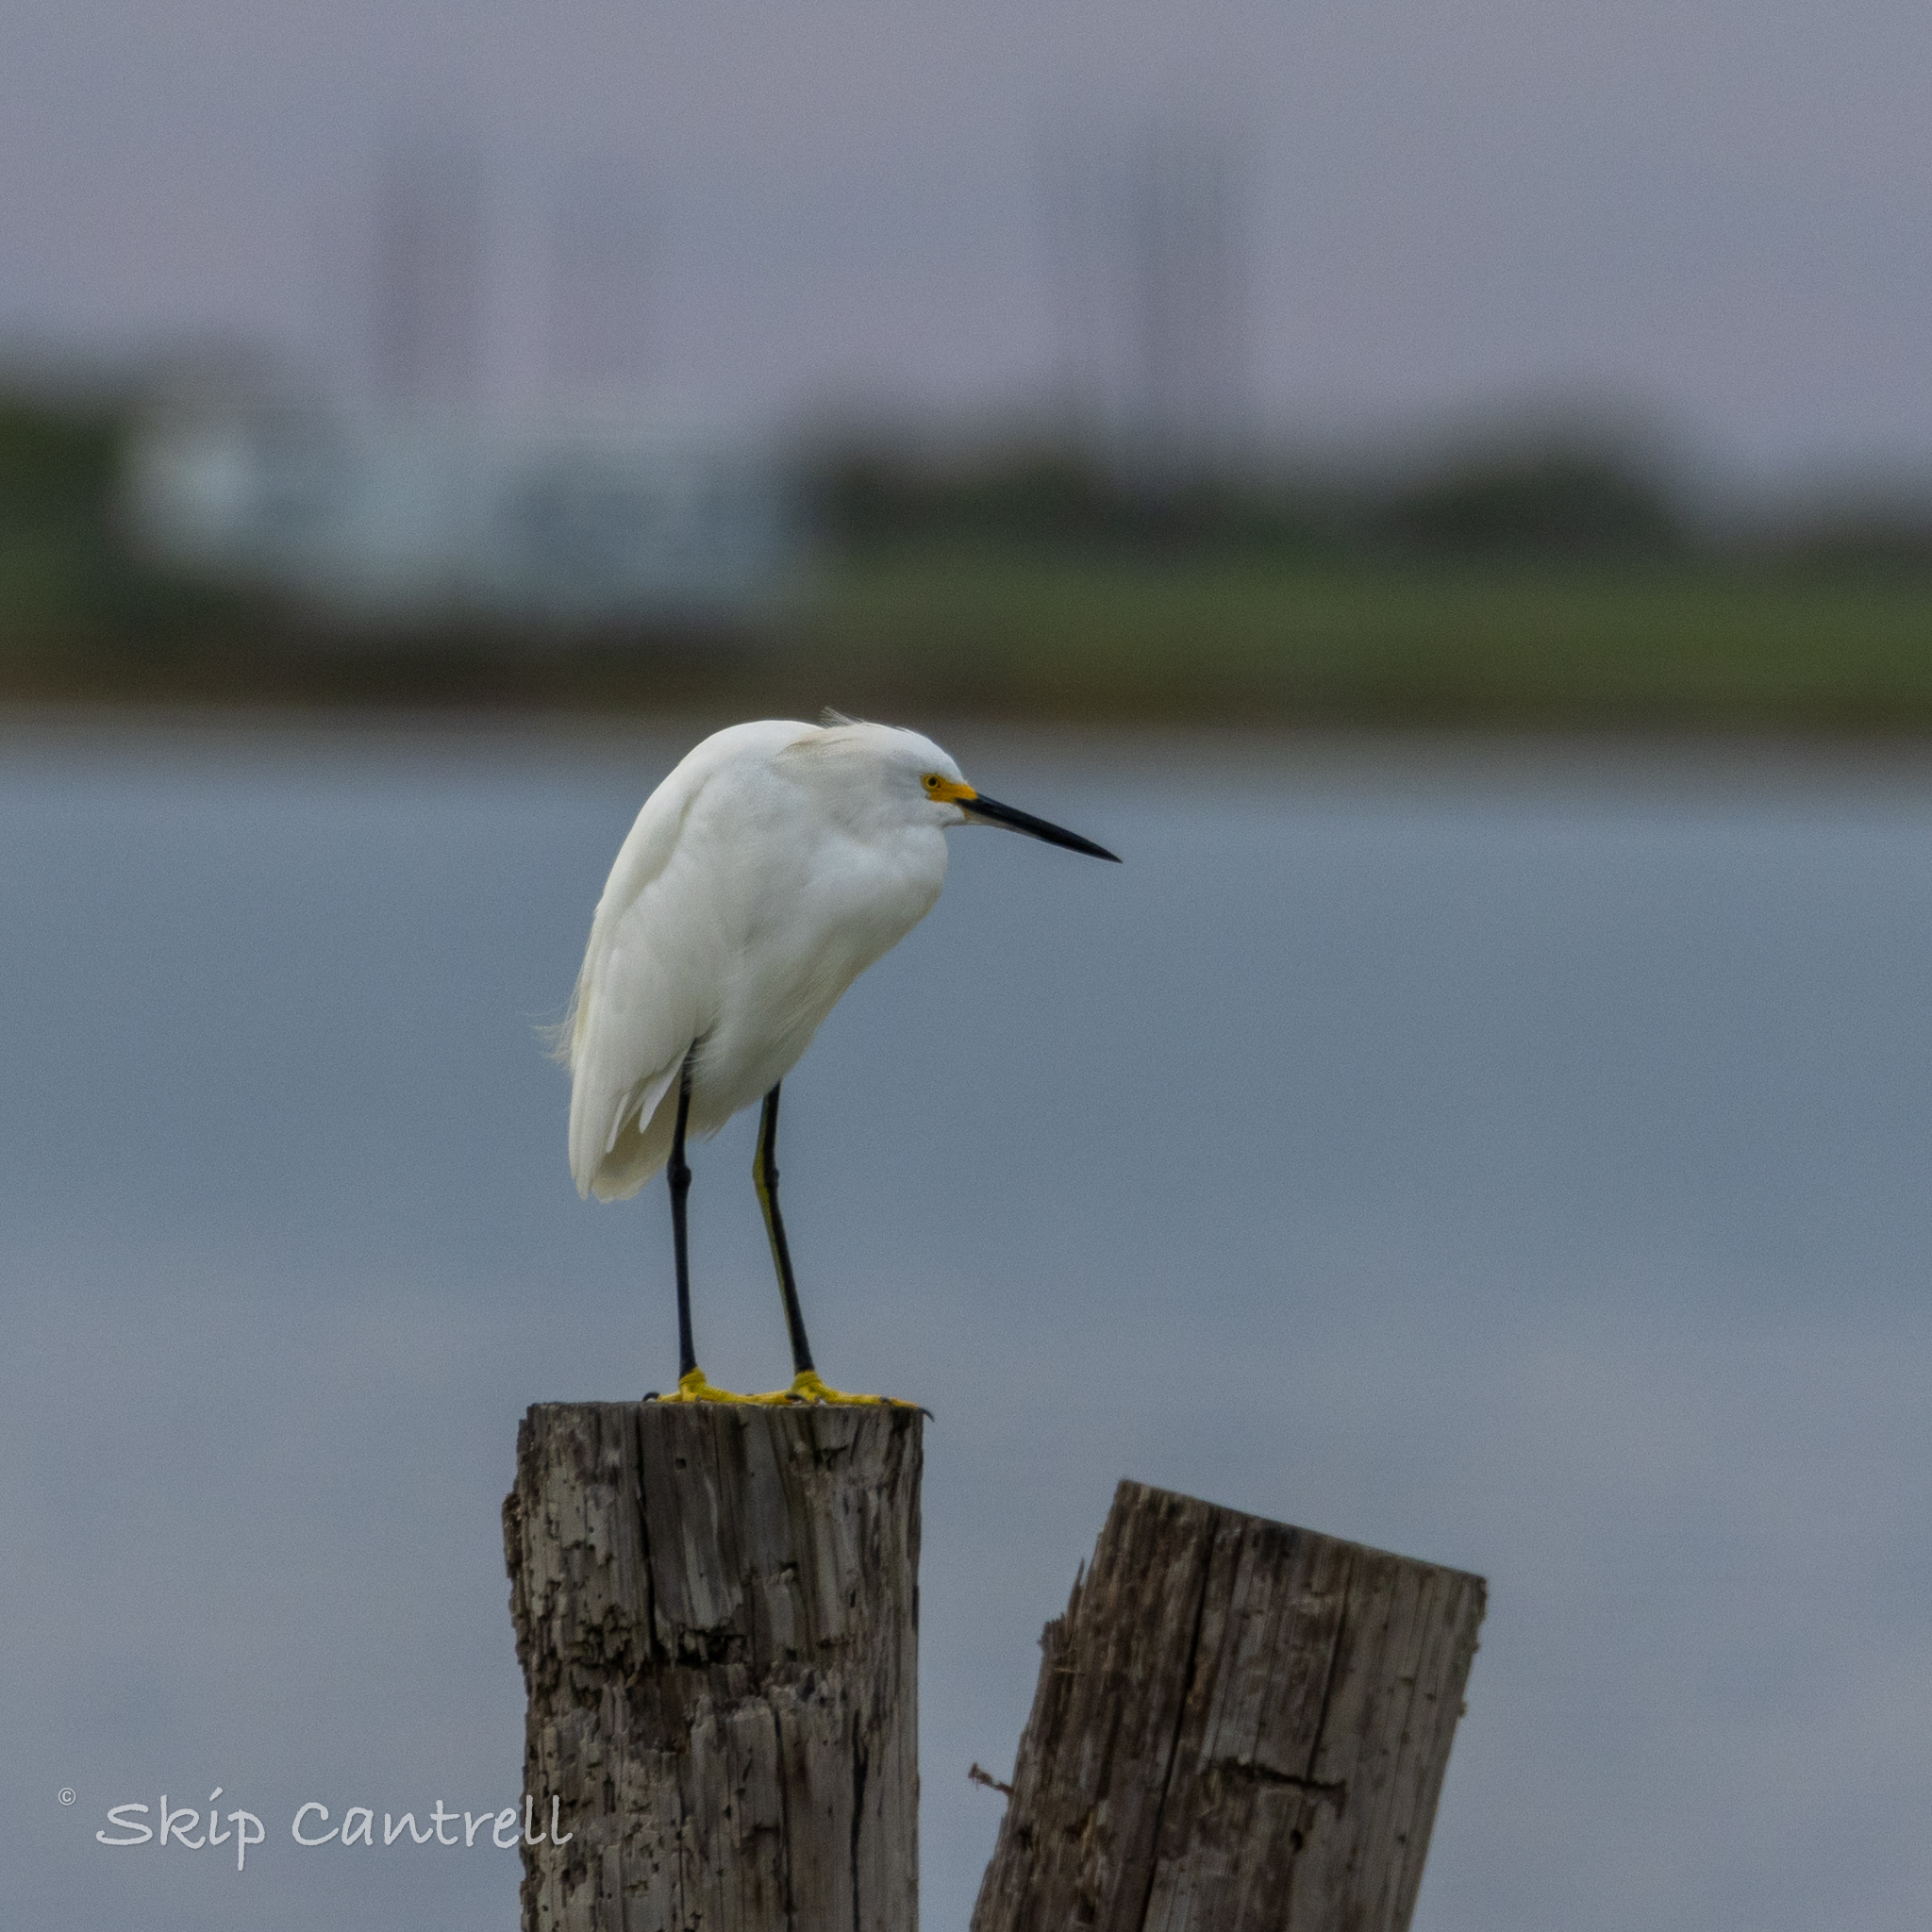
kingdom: Animalia
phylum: Chordata
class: Aves
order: Pelecaniformes
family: Ardeidae
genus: Egretta
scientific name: Egretta thula
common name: Snowy egret
